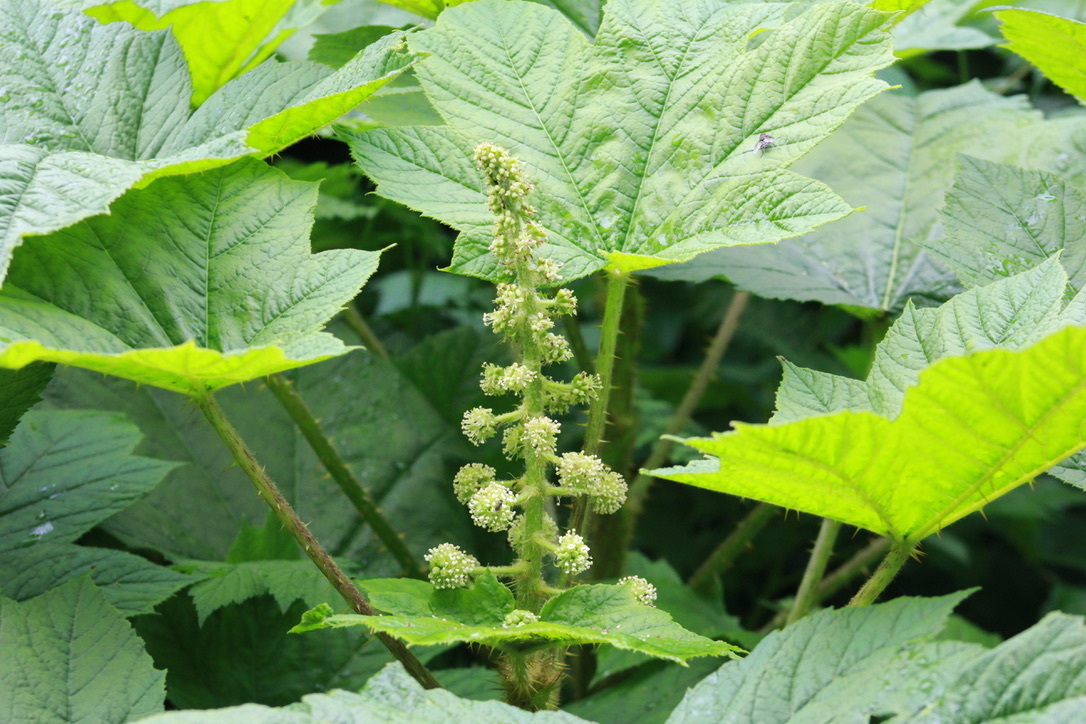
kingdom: Plantae
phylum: Tracheophyta
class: Magnoliopsida
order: Apiales
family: Araliaceae
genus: Oplopanax
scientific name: Oplopanax horridus
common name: Devil's walking-stick
